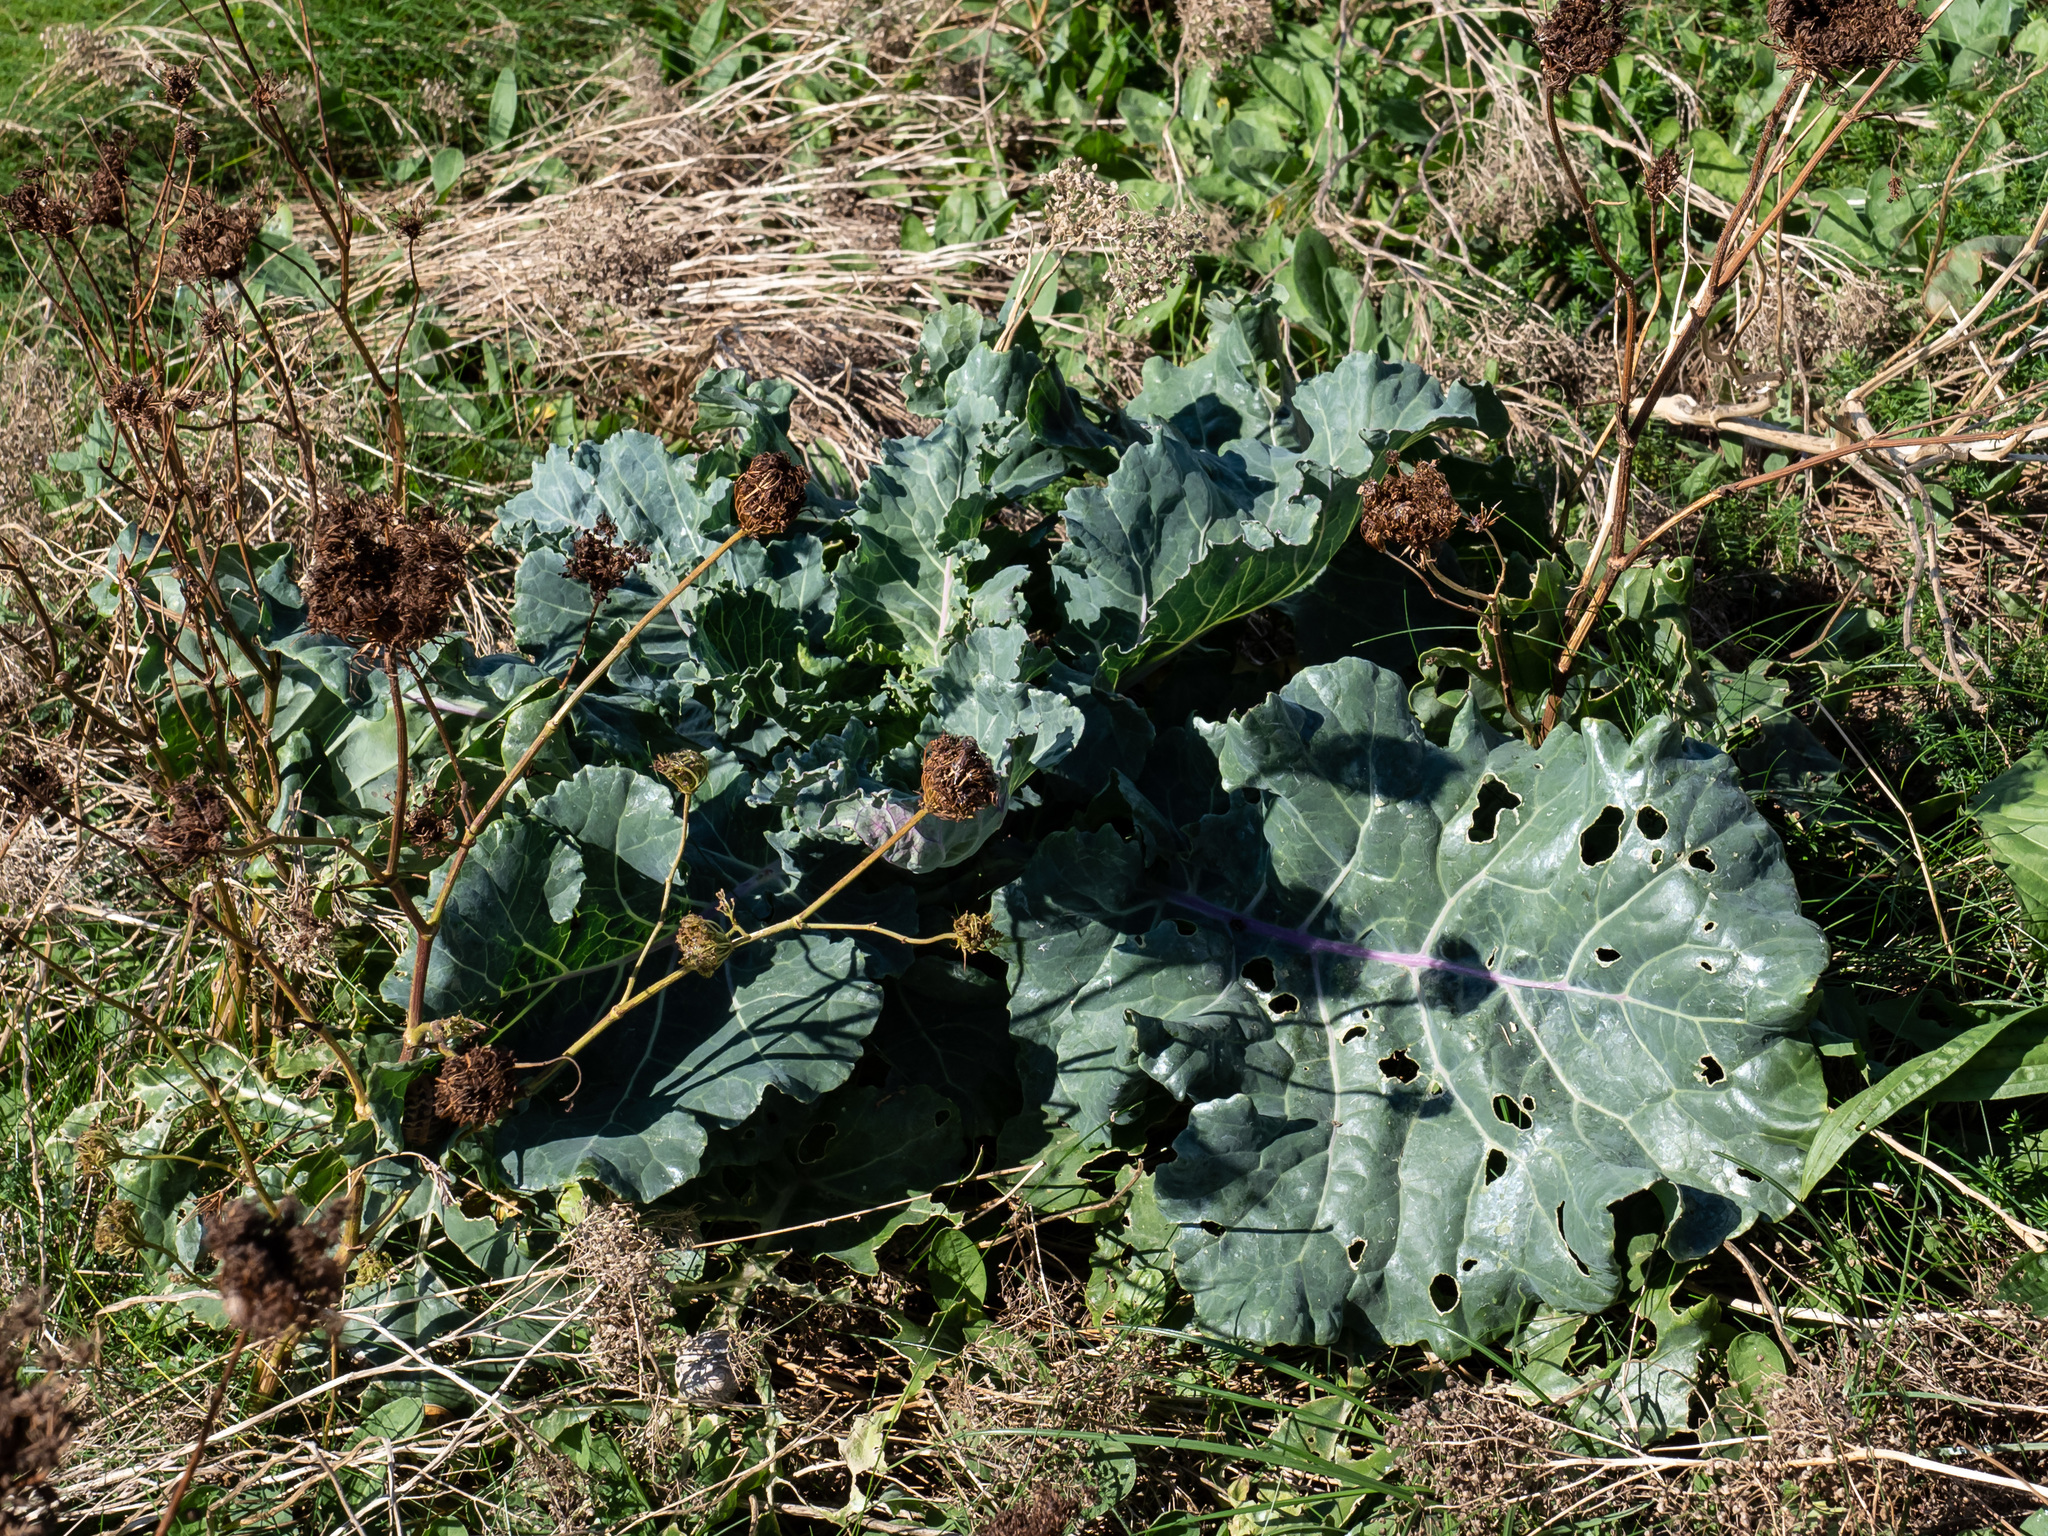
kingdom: Plantae
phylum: Tracheophyta
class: Magnoliopsida
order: Brassicales
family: Brassicaceae
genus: Brassica
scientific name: Brassica oleracea
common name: Cabbage
